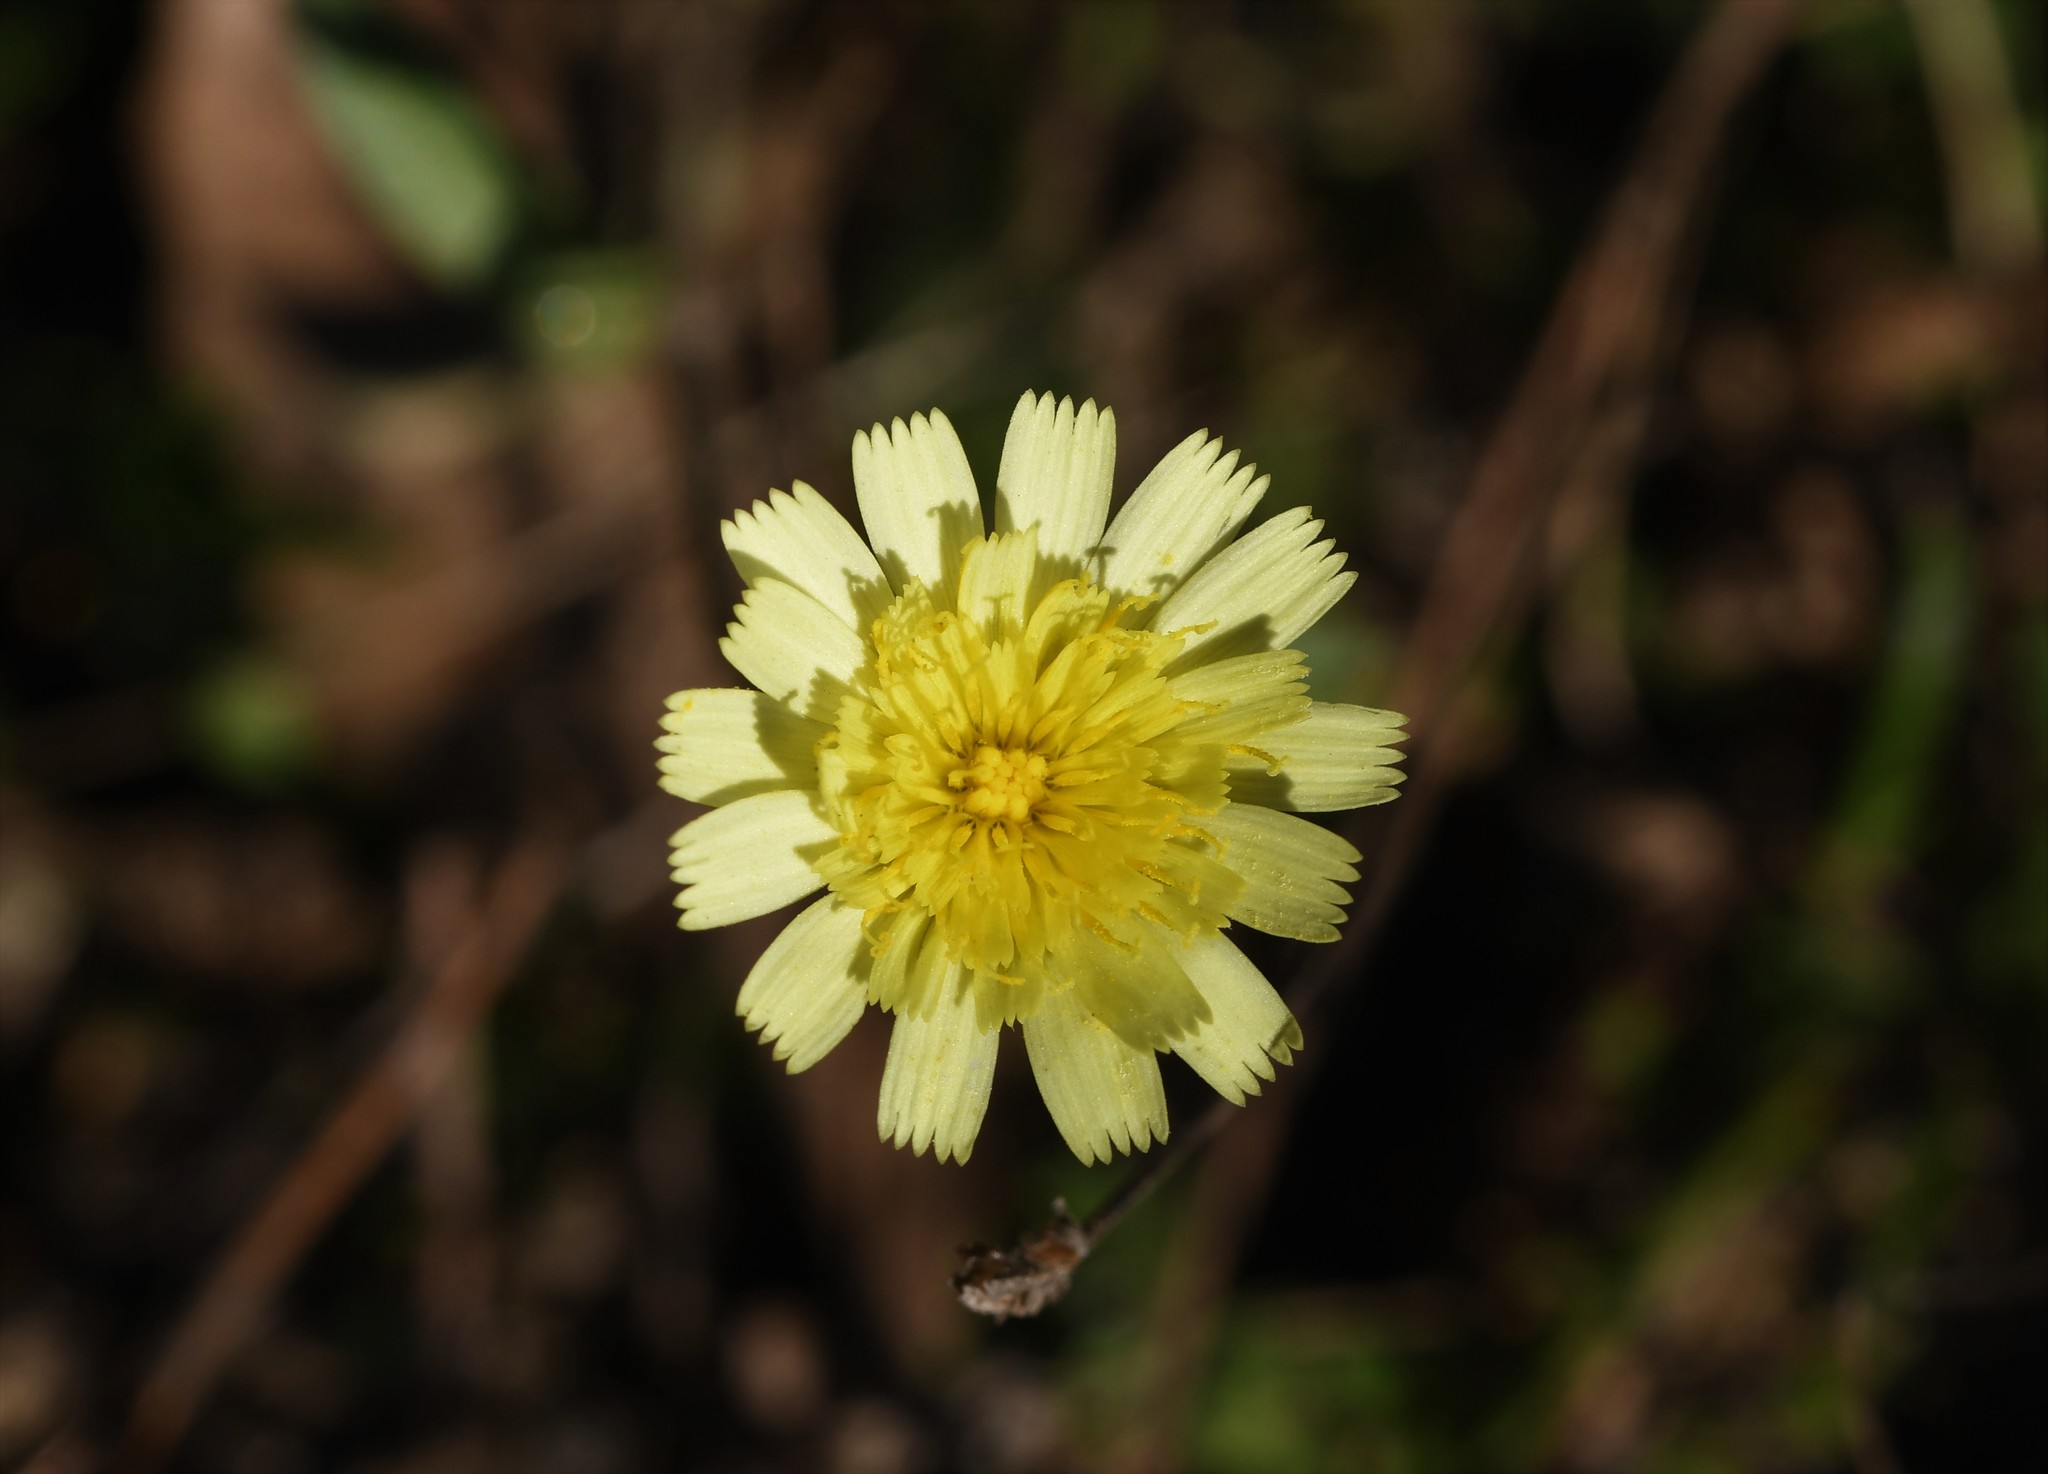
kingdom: Plantae
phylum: Tracheophyta
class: Magnoliopsida
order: Asterales
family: Asteraceae
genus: Andryala
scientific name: Andryala integrifolia
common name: Common andryala
